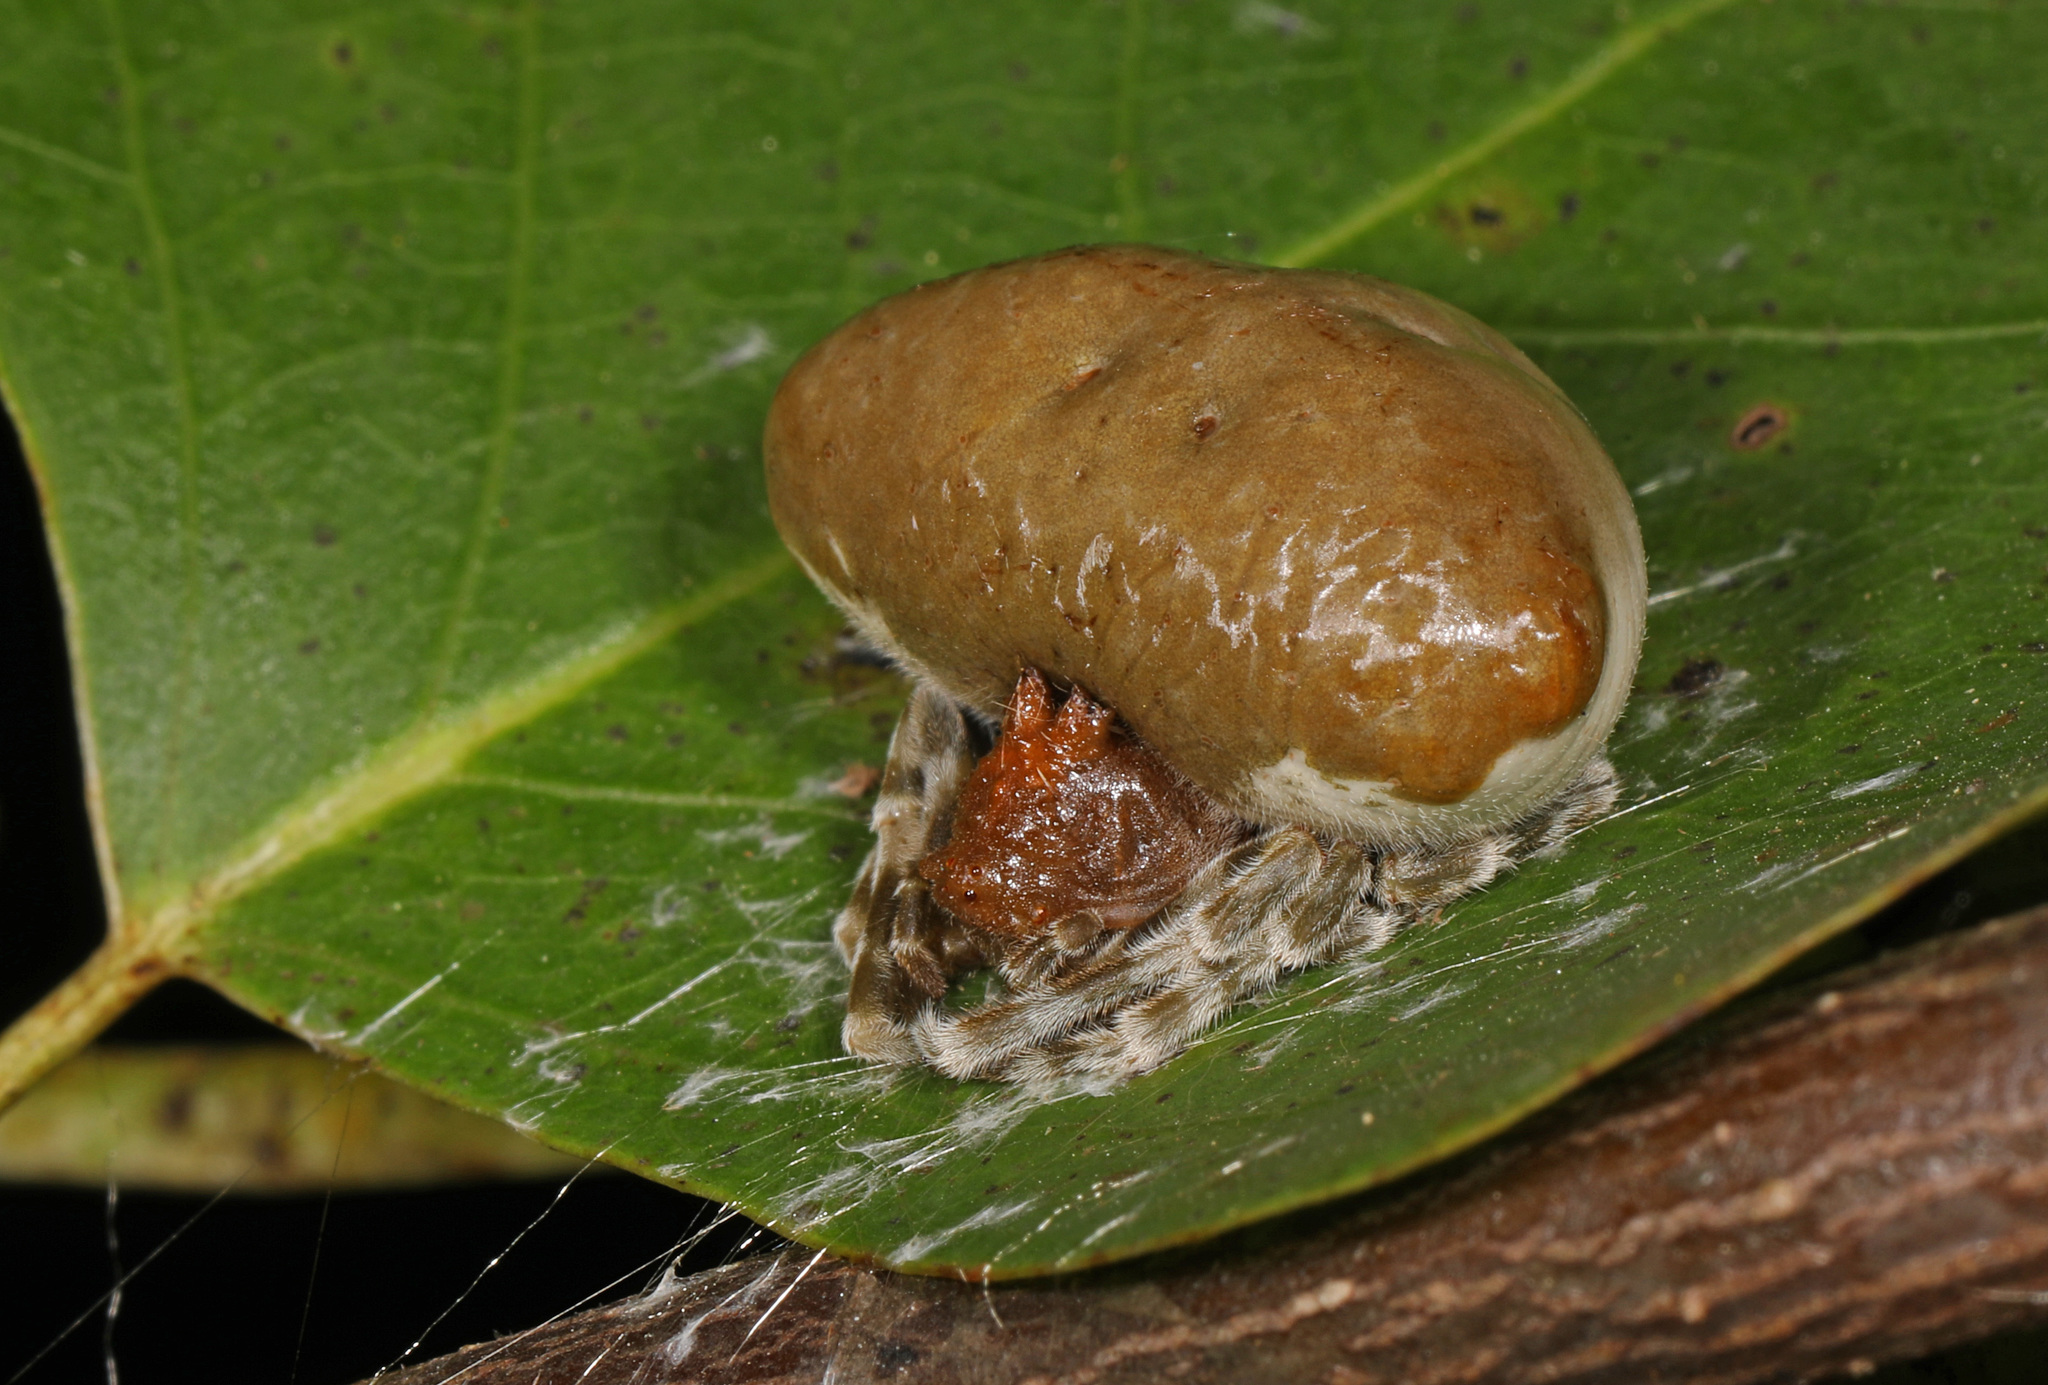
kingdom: Animalia
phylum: Arthropoda
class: Arachnida
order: Araneae
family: Araneidae
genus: Mastophora
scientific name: Mastophora phrynosoma
